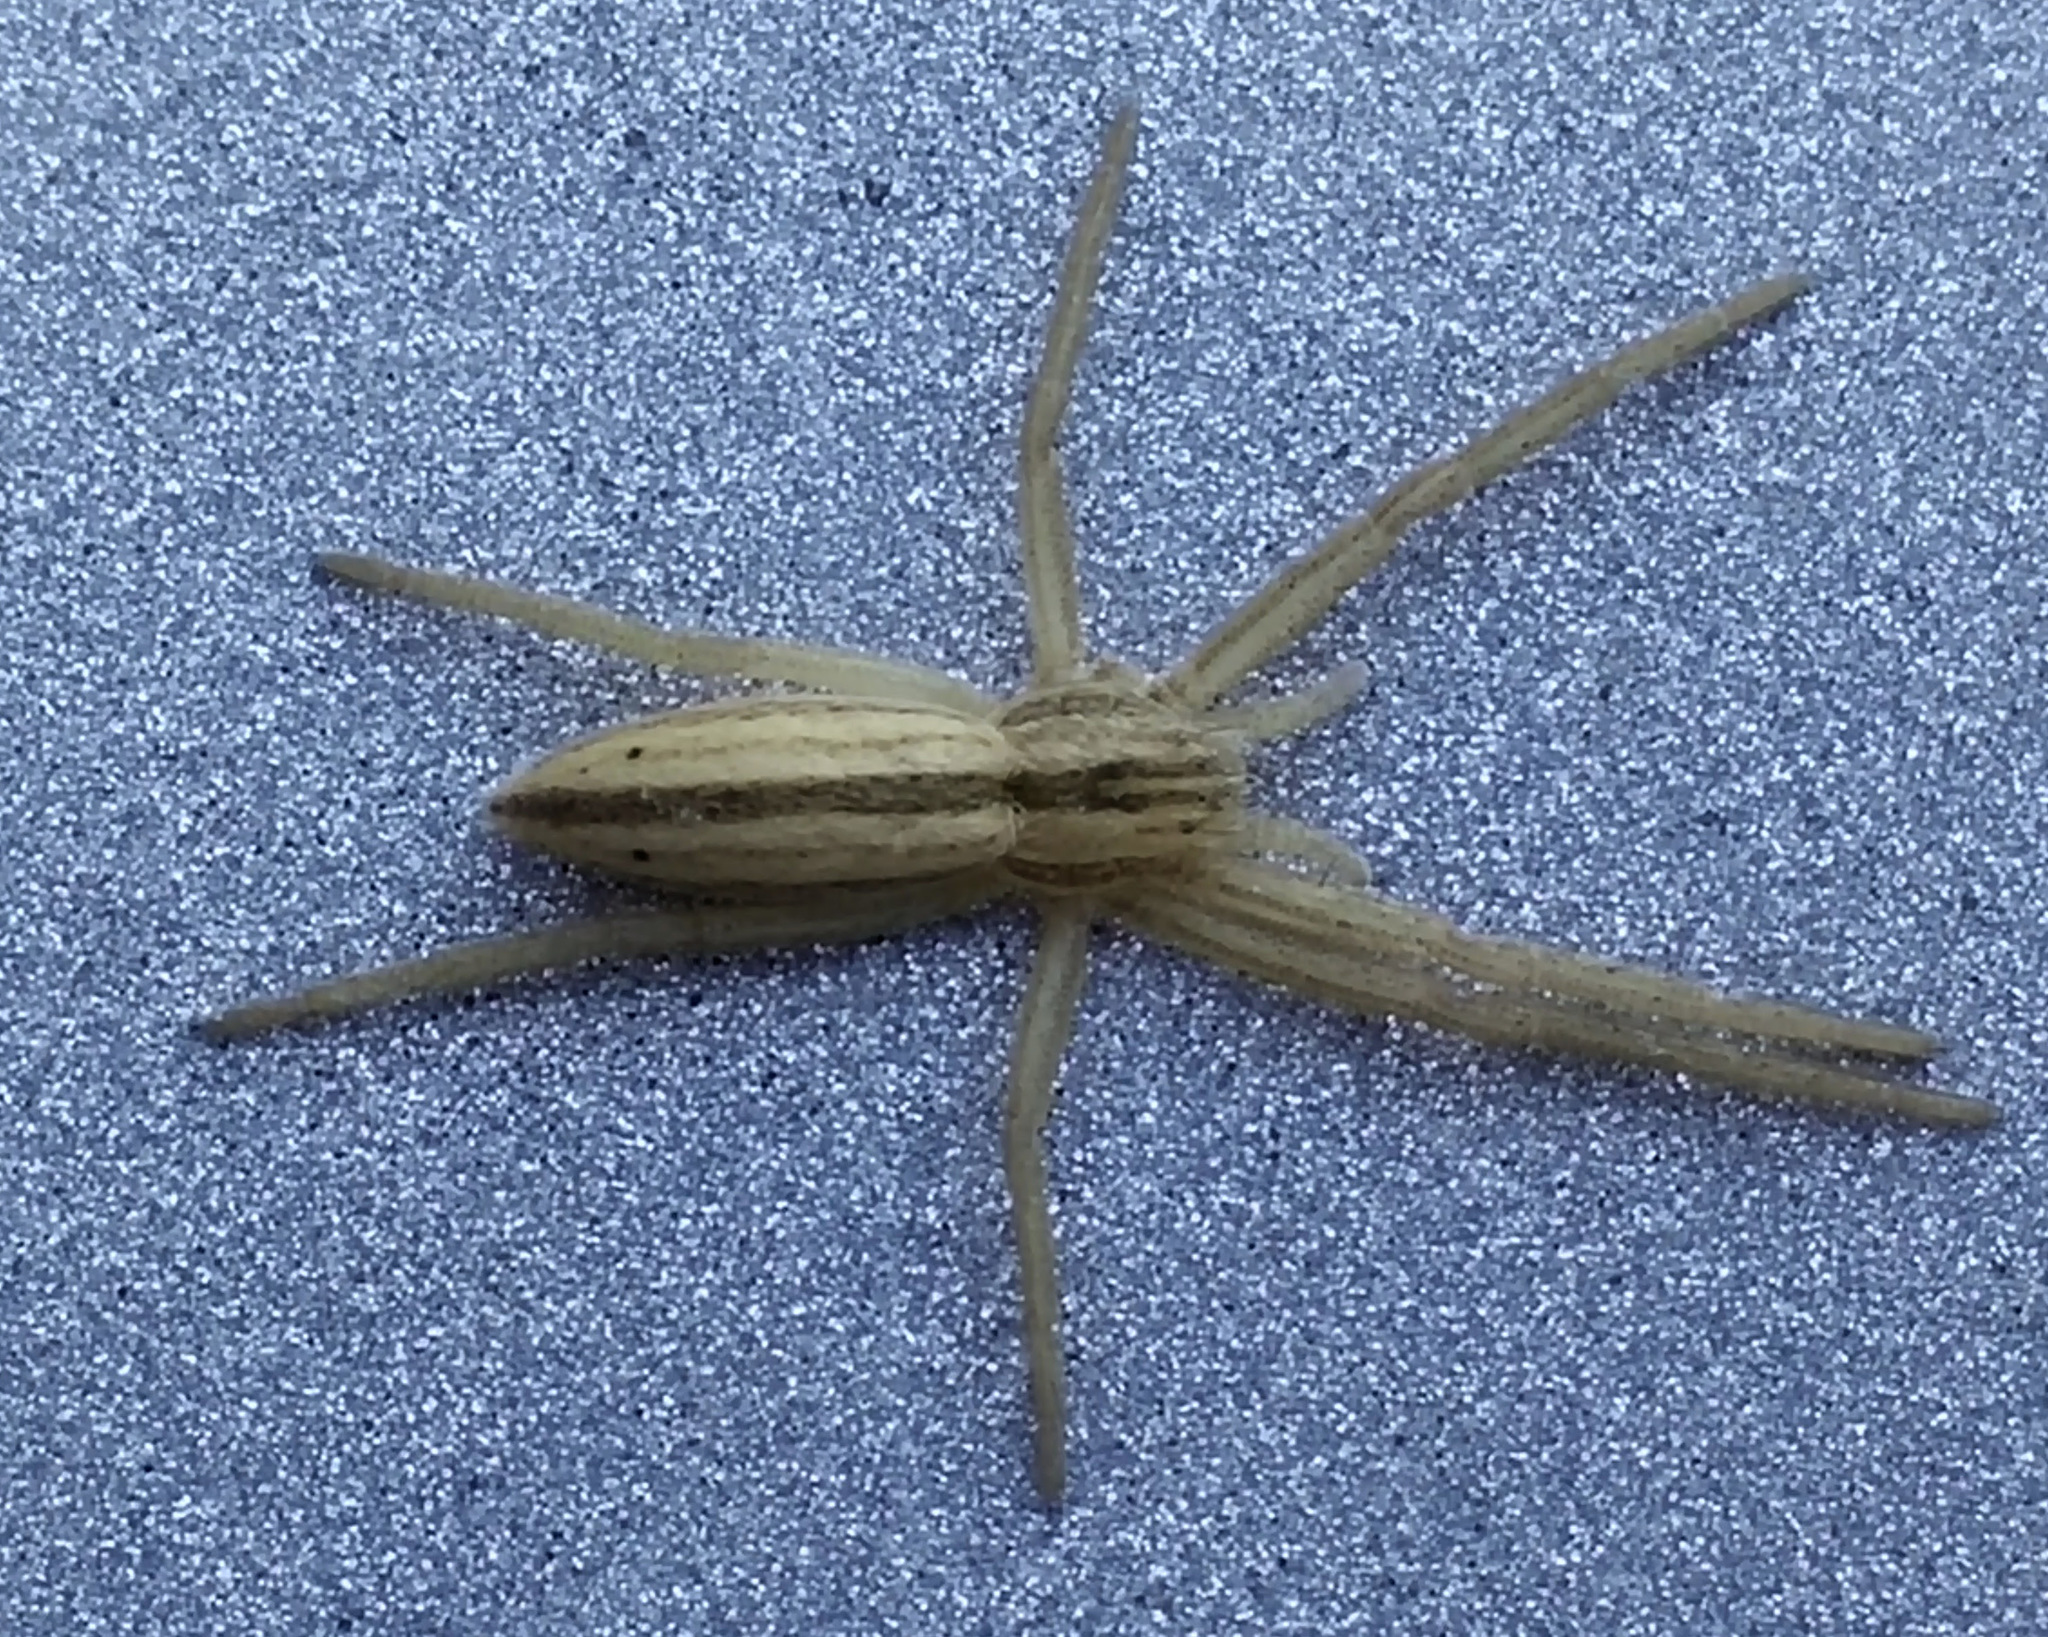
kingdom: Animalia
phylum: Arthropoda
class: Arachnida
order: Araneae
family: Philodromidae
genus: Tibellus
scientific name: Tibellus oblongus
